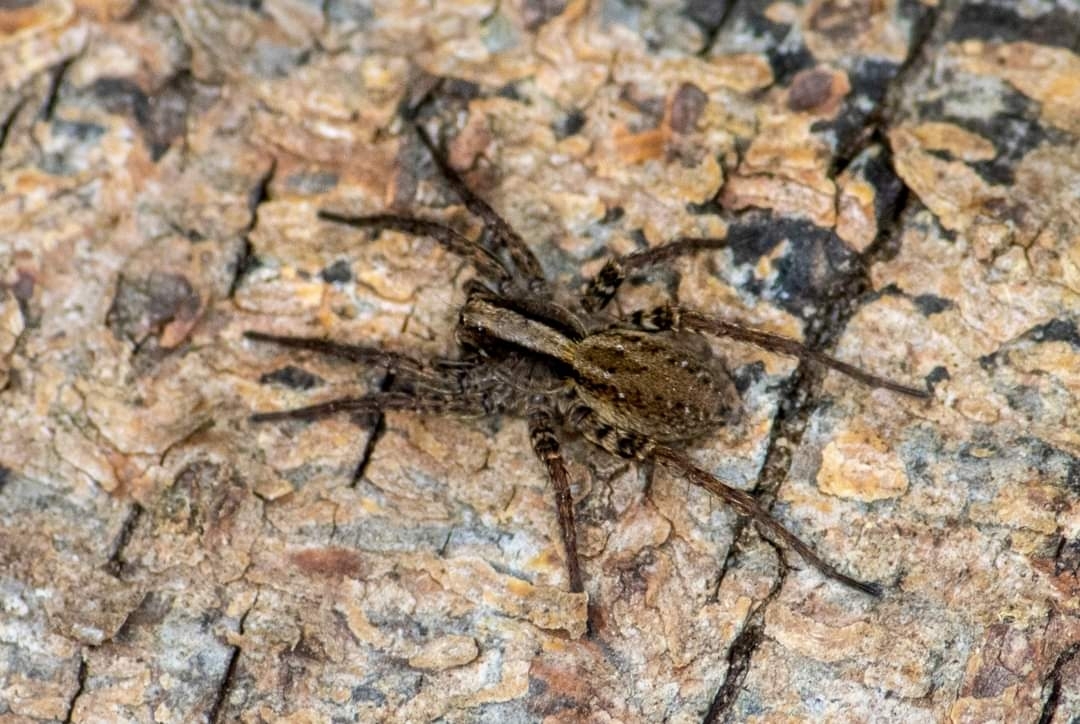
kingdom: Animalia
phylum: Arthropoda
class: Arachnida
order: Araneae
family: Lycosidae
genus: Alopecosa
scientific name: Alopecosa pulverulenta
